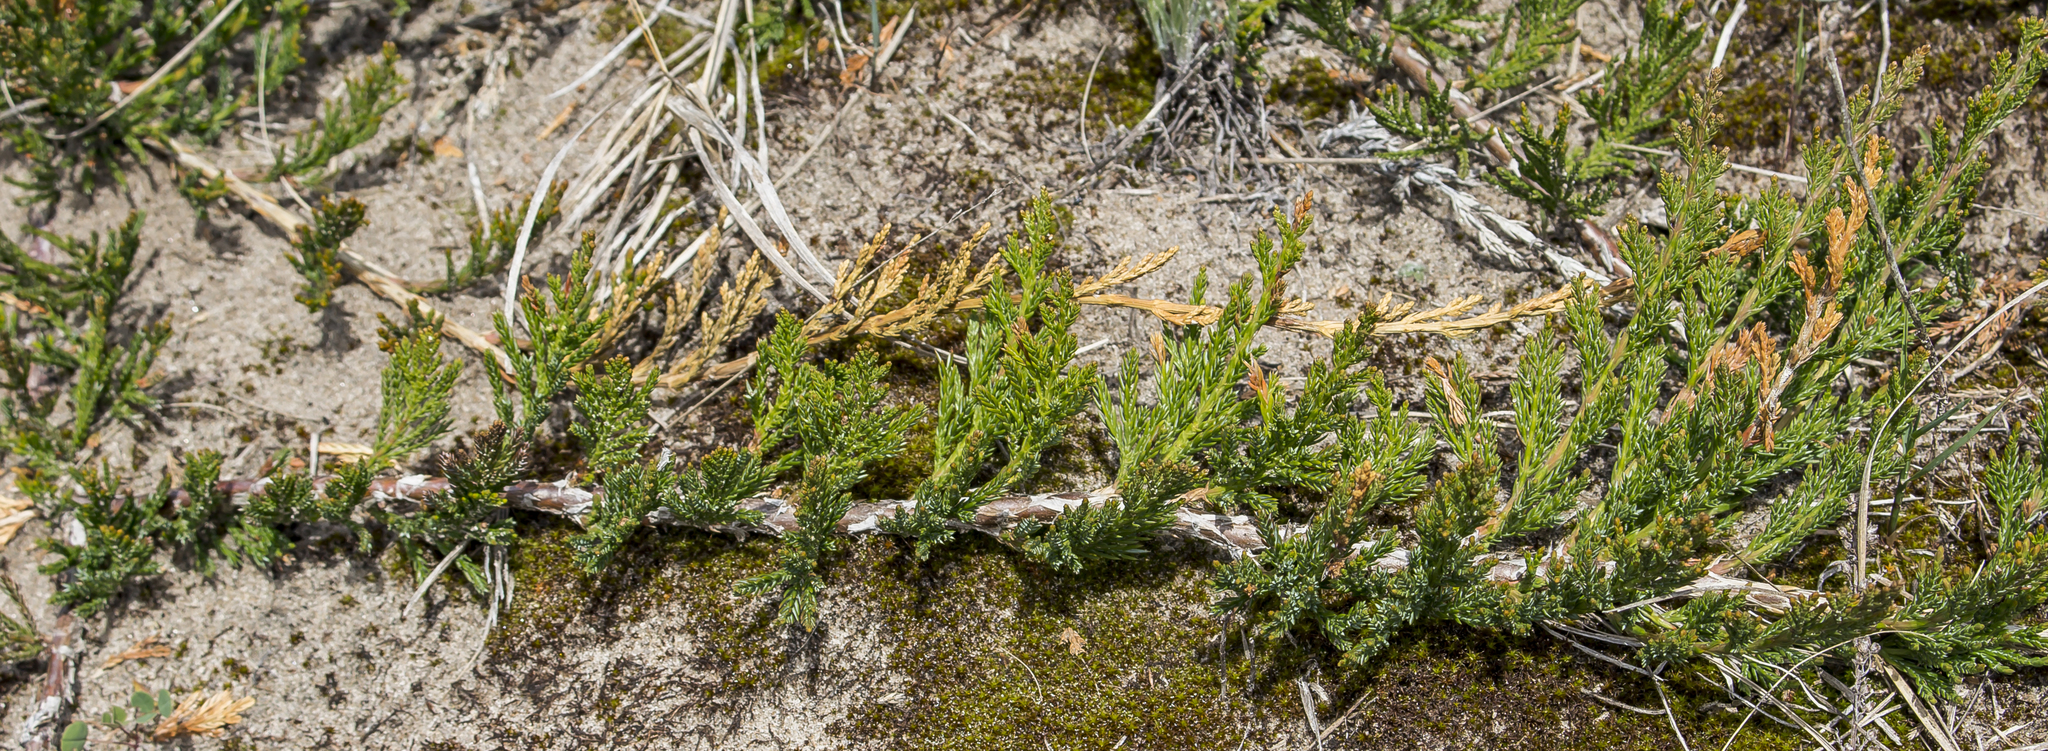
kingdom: Plantae
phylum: Tracheophyta
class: Pinopsida
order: Pinales
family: Cupressaceae
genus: Juniperus
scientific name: Juniperus horizontalis
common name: Creeping juniper
